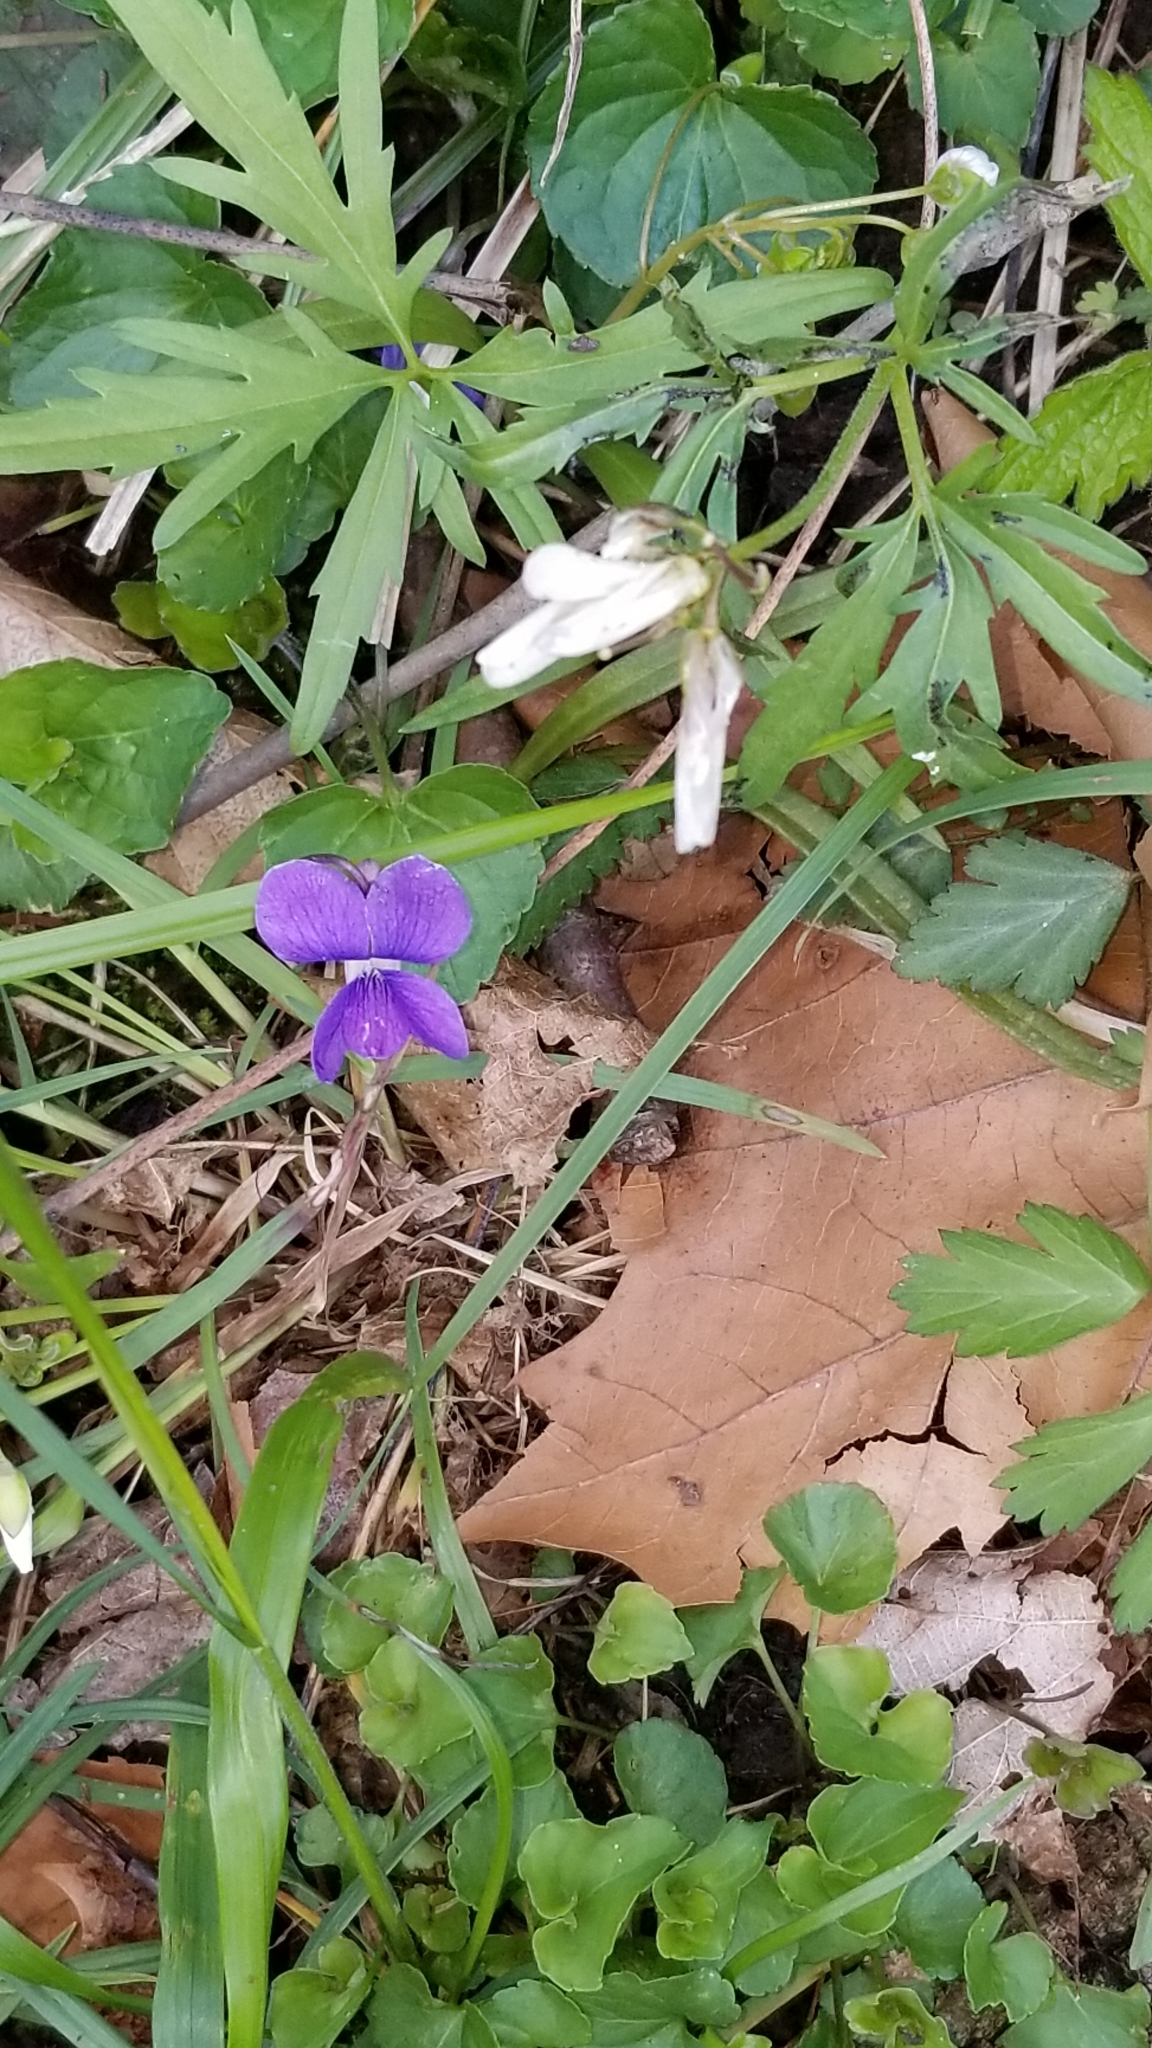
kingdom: Plantae
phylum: Tracheophyta
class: Magnoliopsida
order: Malpighiales
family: Violaceae
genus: Viola
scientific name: Viola sororia
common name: Dooryard violet
